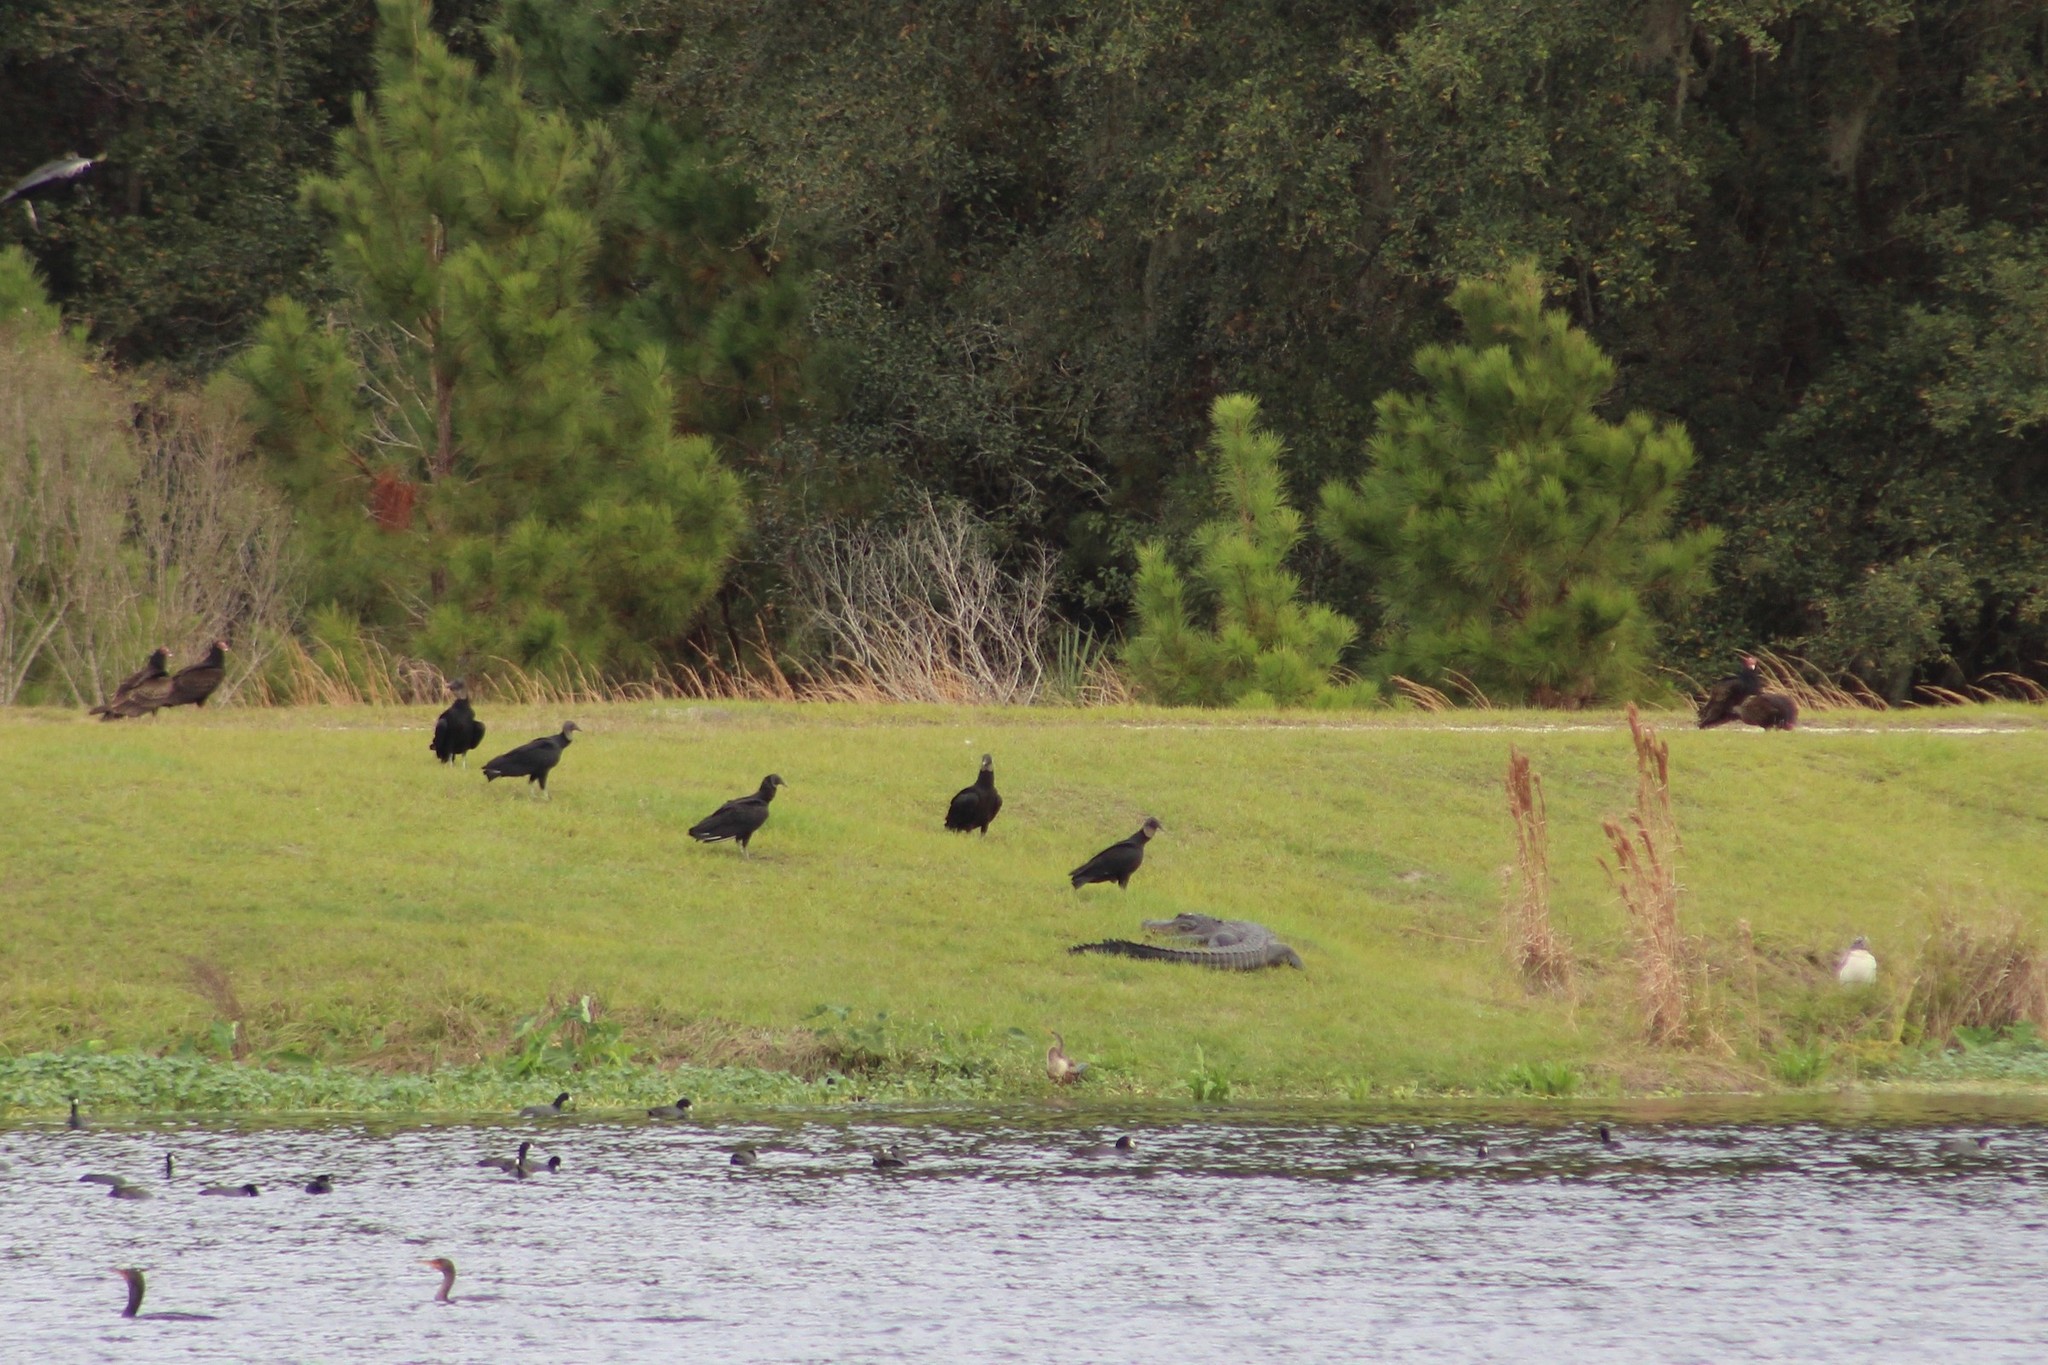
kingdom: Animalia
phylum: Chordata
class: Aves
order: Accipitriformes
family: Cathartidae
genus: Coragyps
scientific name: Coragyps atratus
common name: Black vulture
